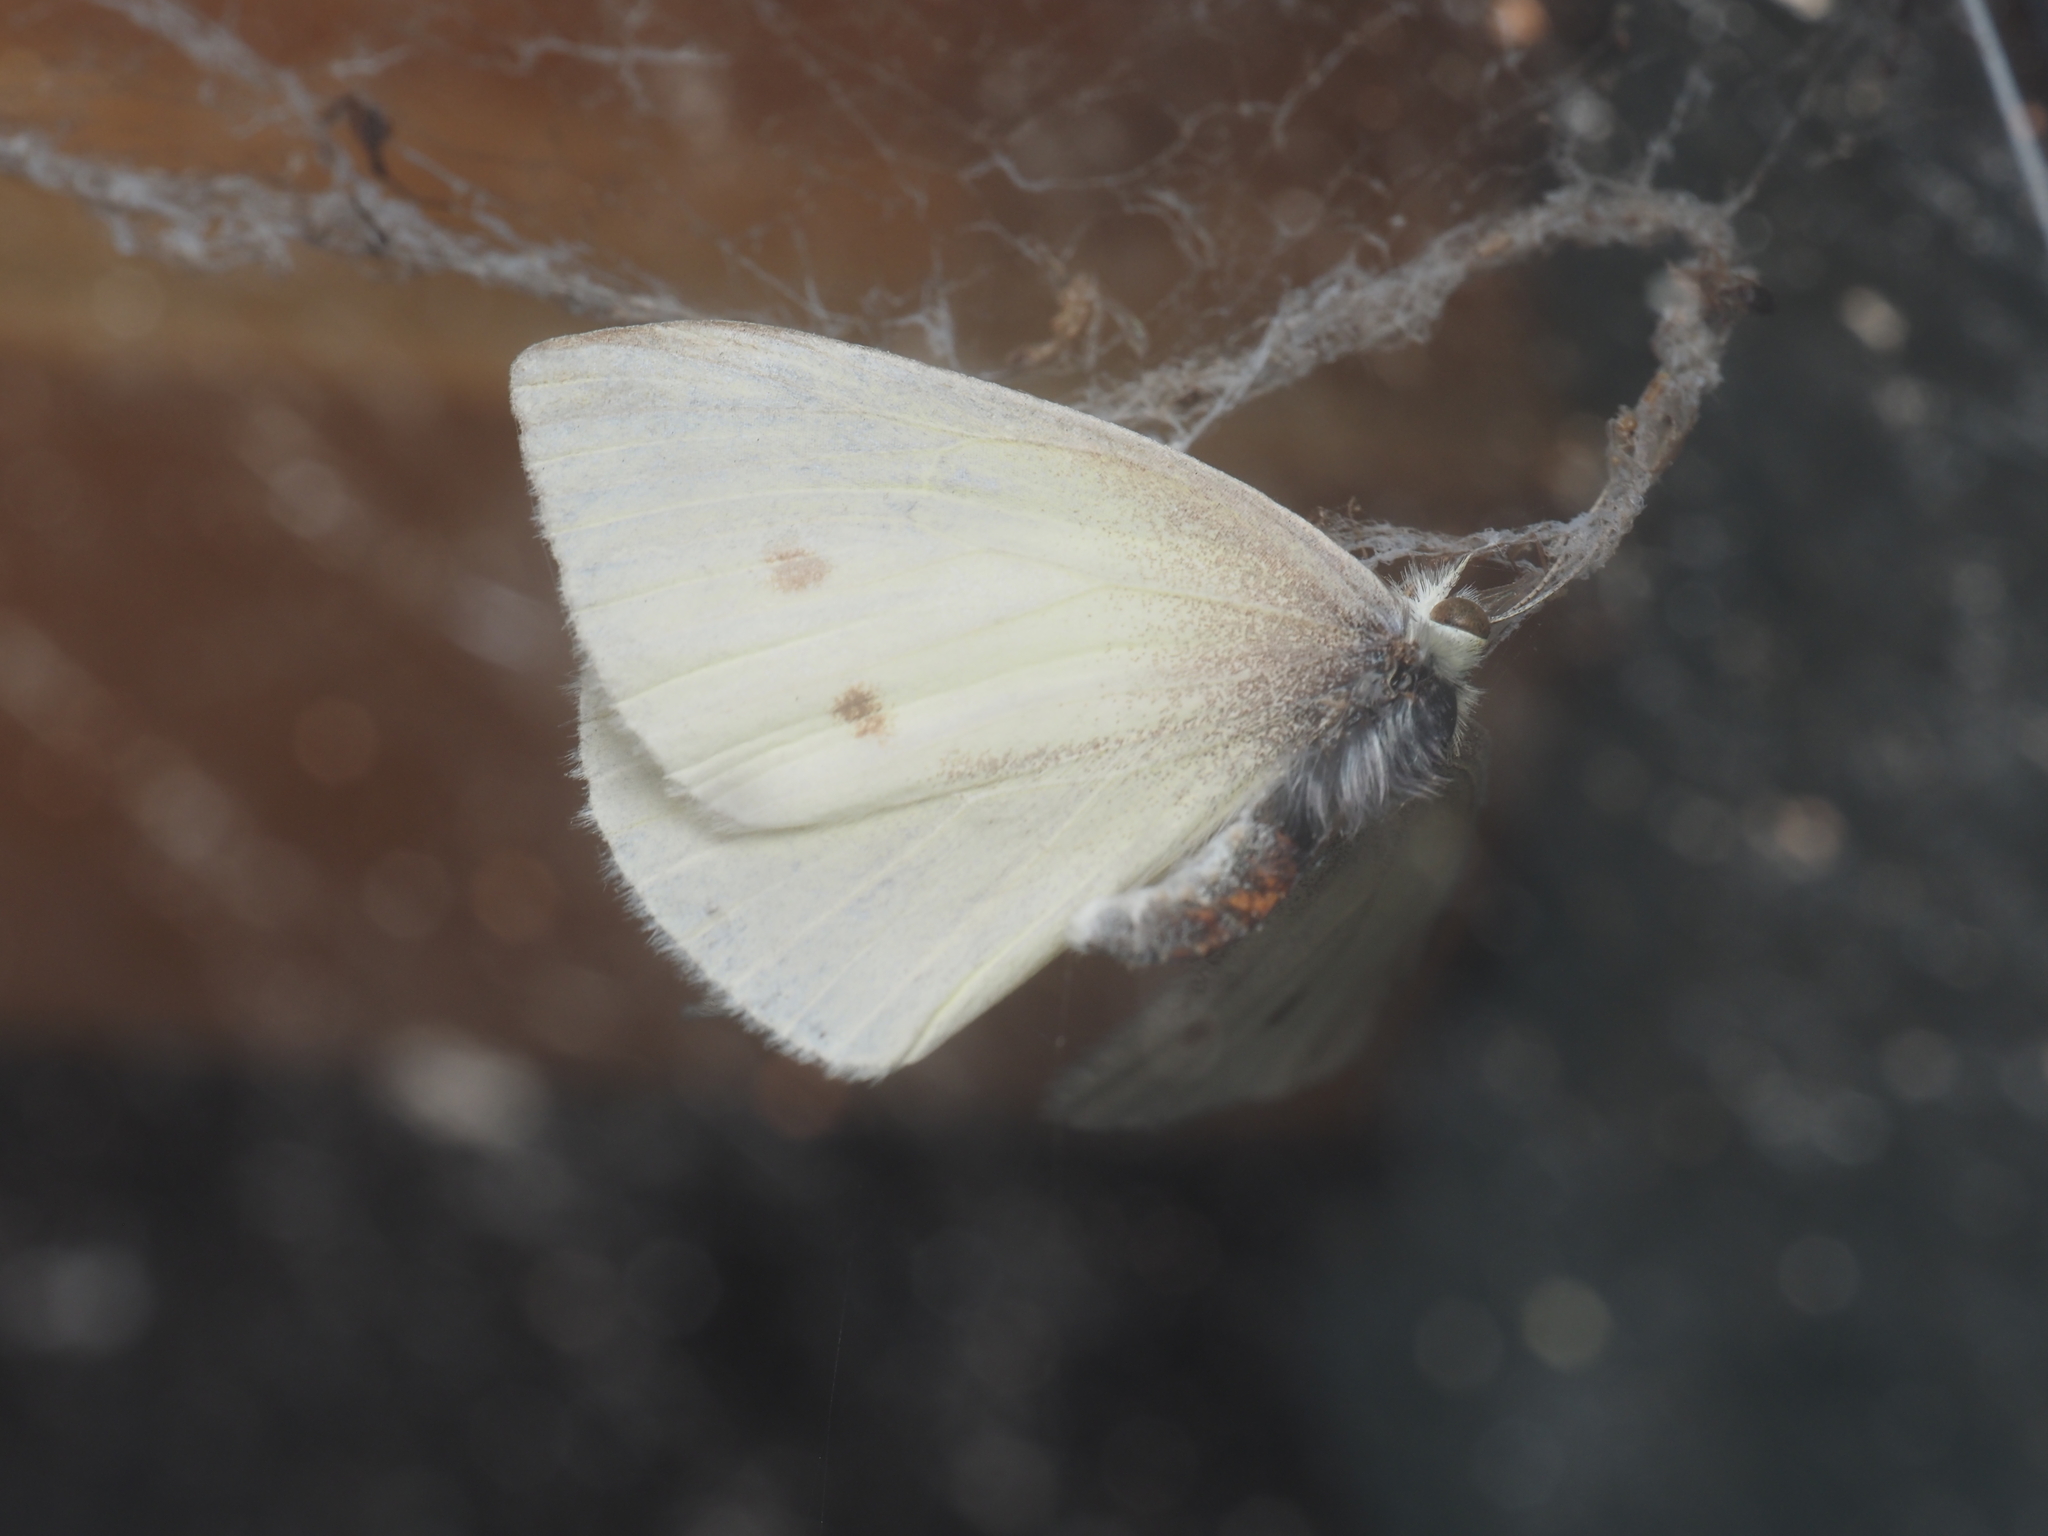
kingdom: Animalia
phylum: Arthropoda
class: Insecta
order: Lepidoptera
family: Pieridae
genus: Pieris
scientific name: Pieris rapae
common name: Small white
